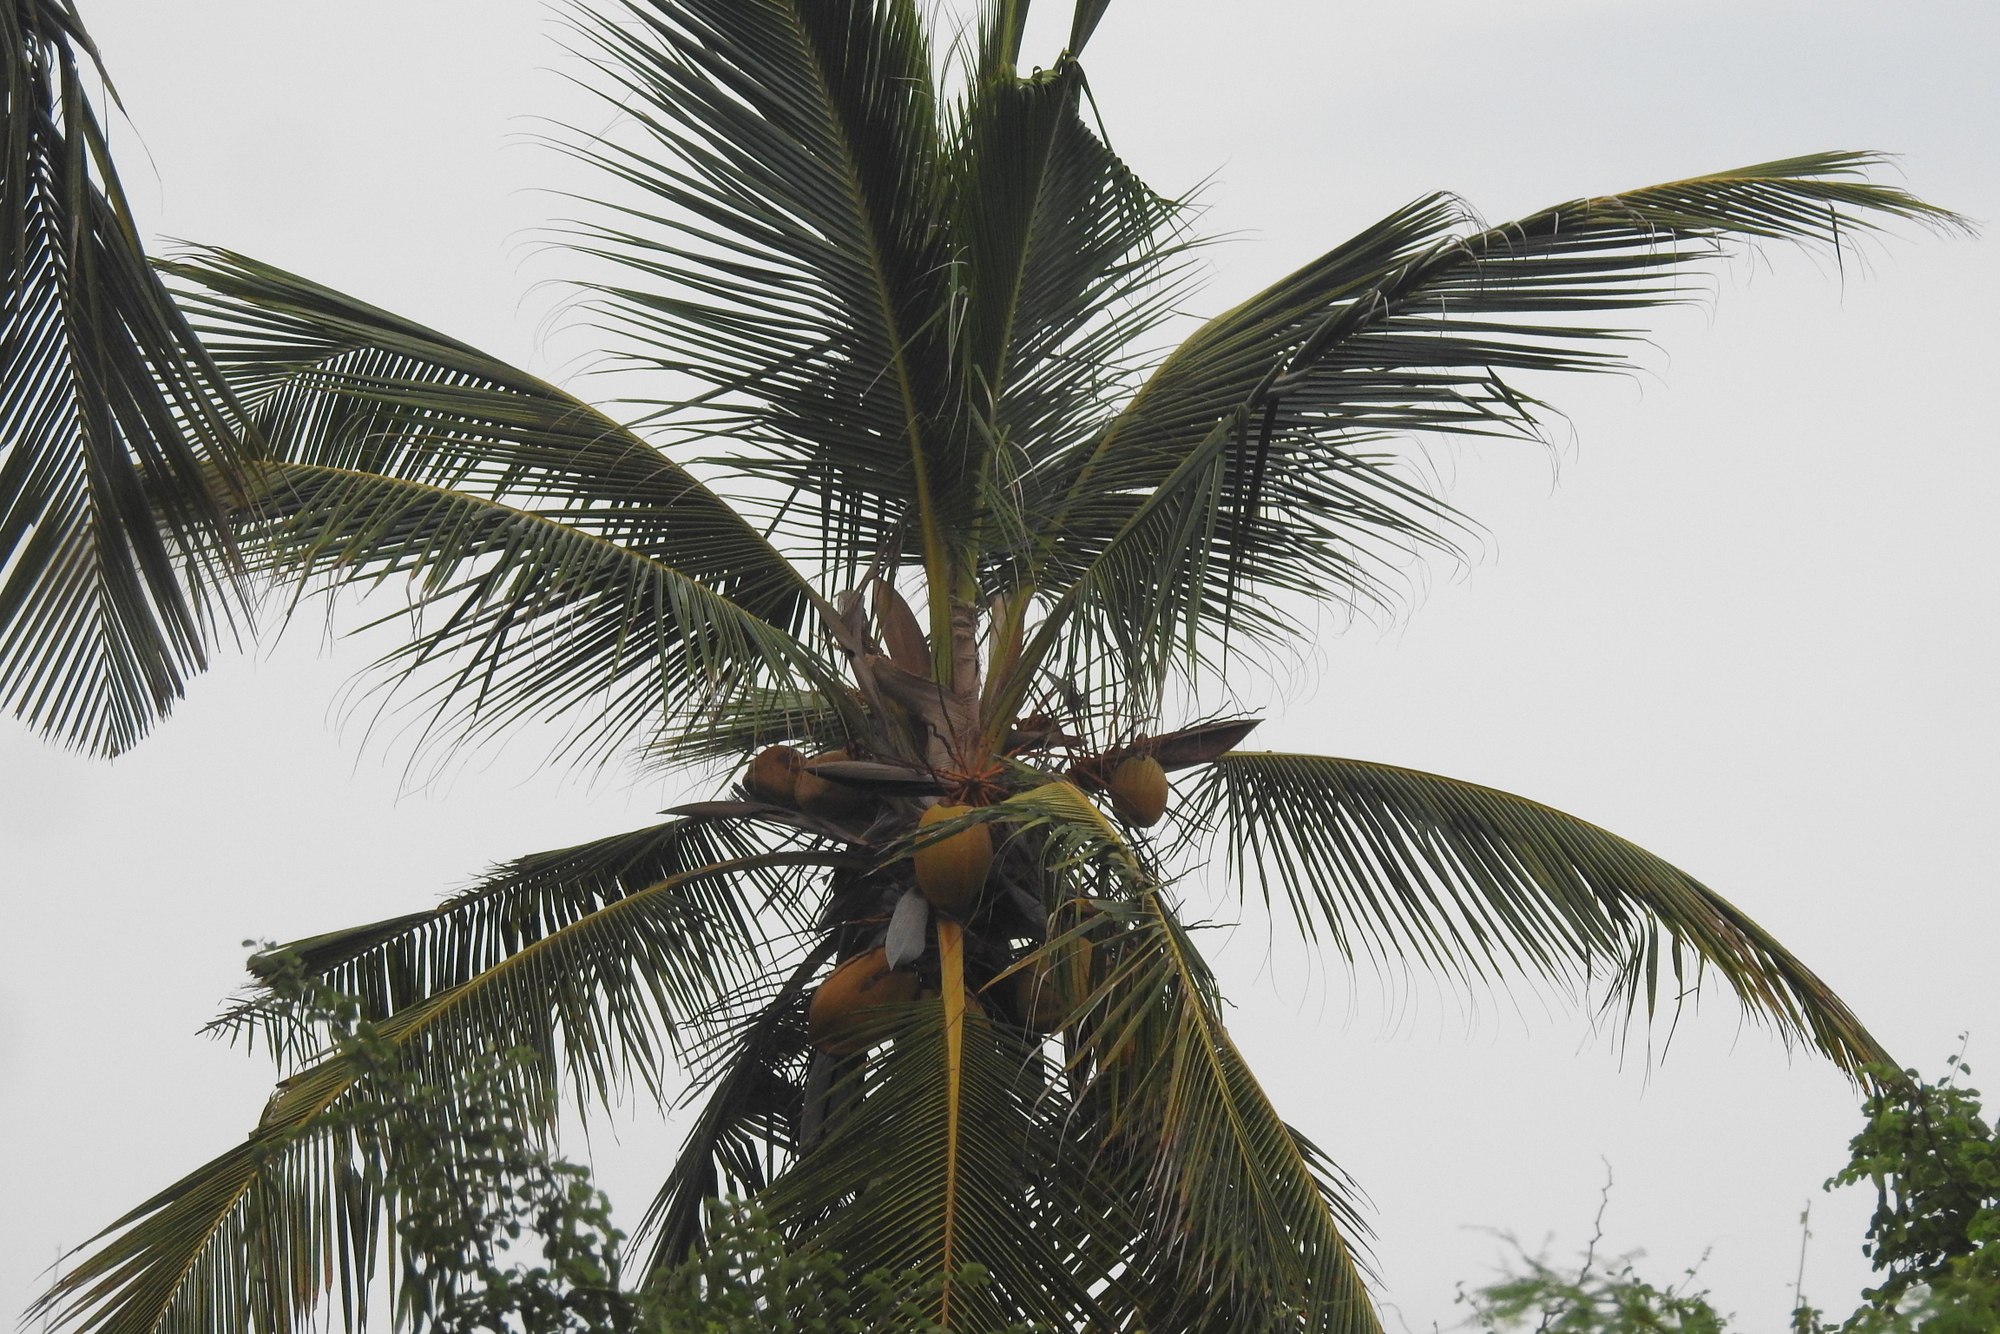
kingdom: Plantae
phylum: Tracheophyta
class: Liliopsida
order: Arecales
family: Arecaceae
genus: Cocos
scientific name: Cocos nucifera
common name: Coconut palm
